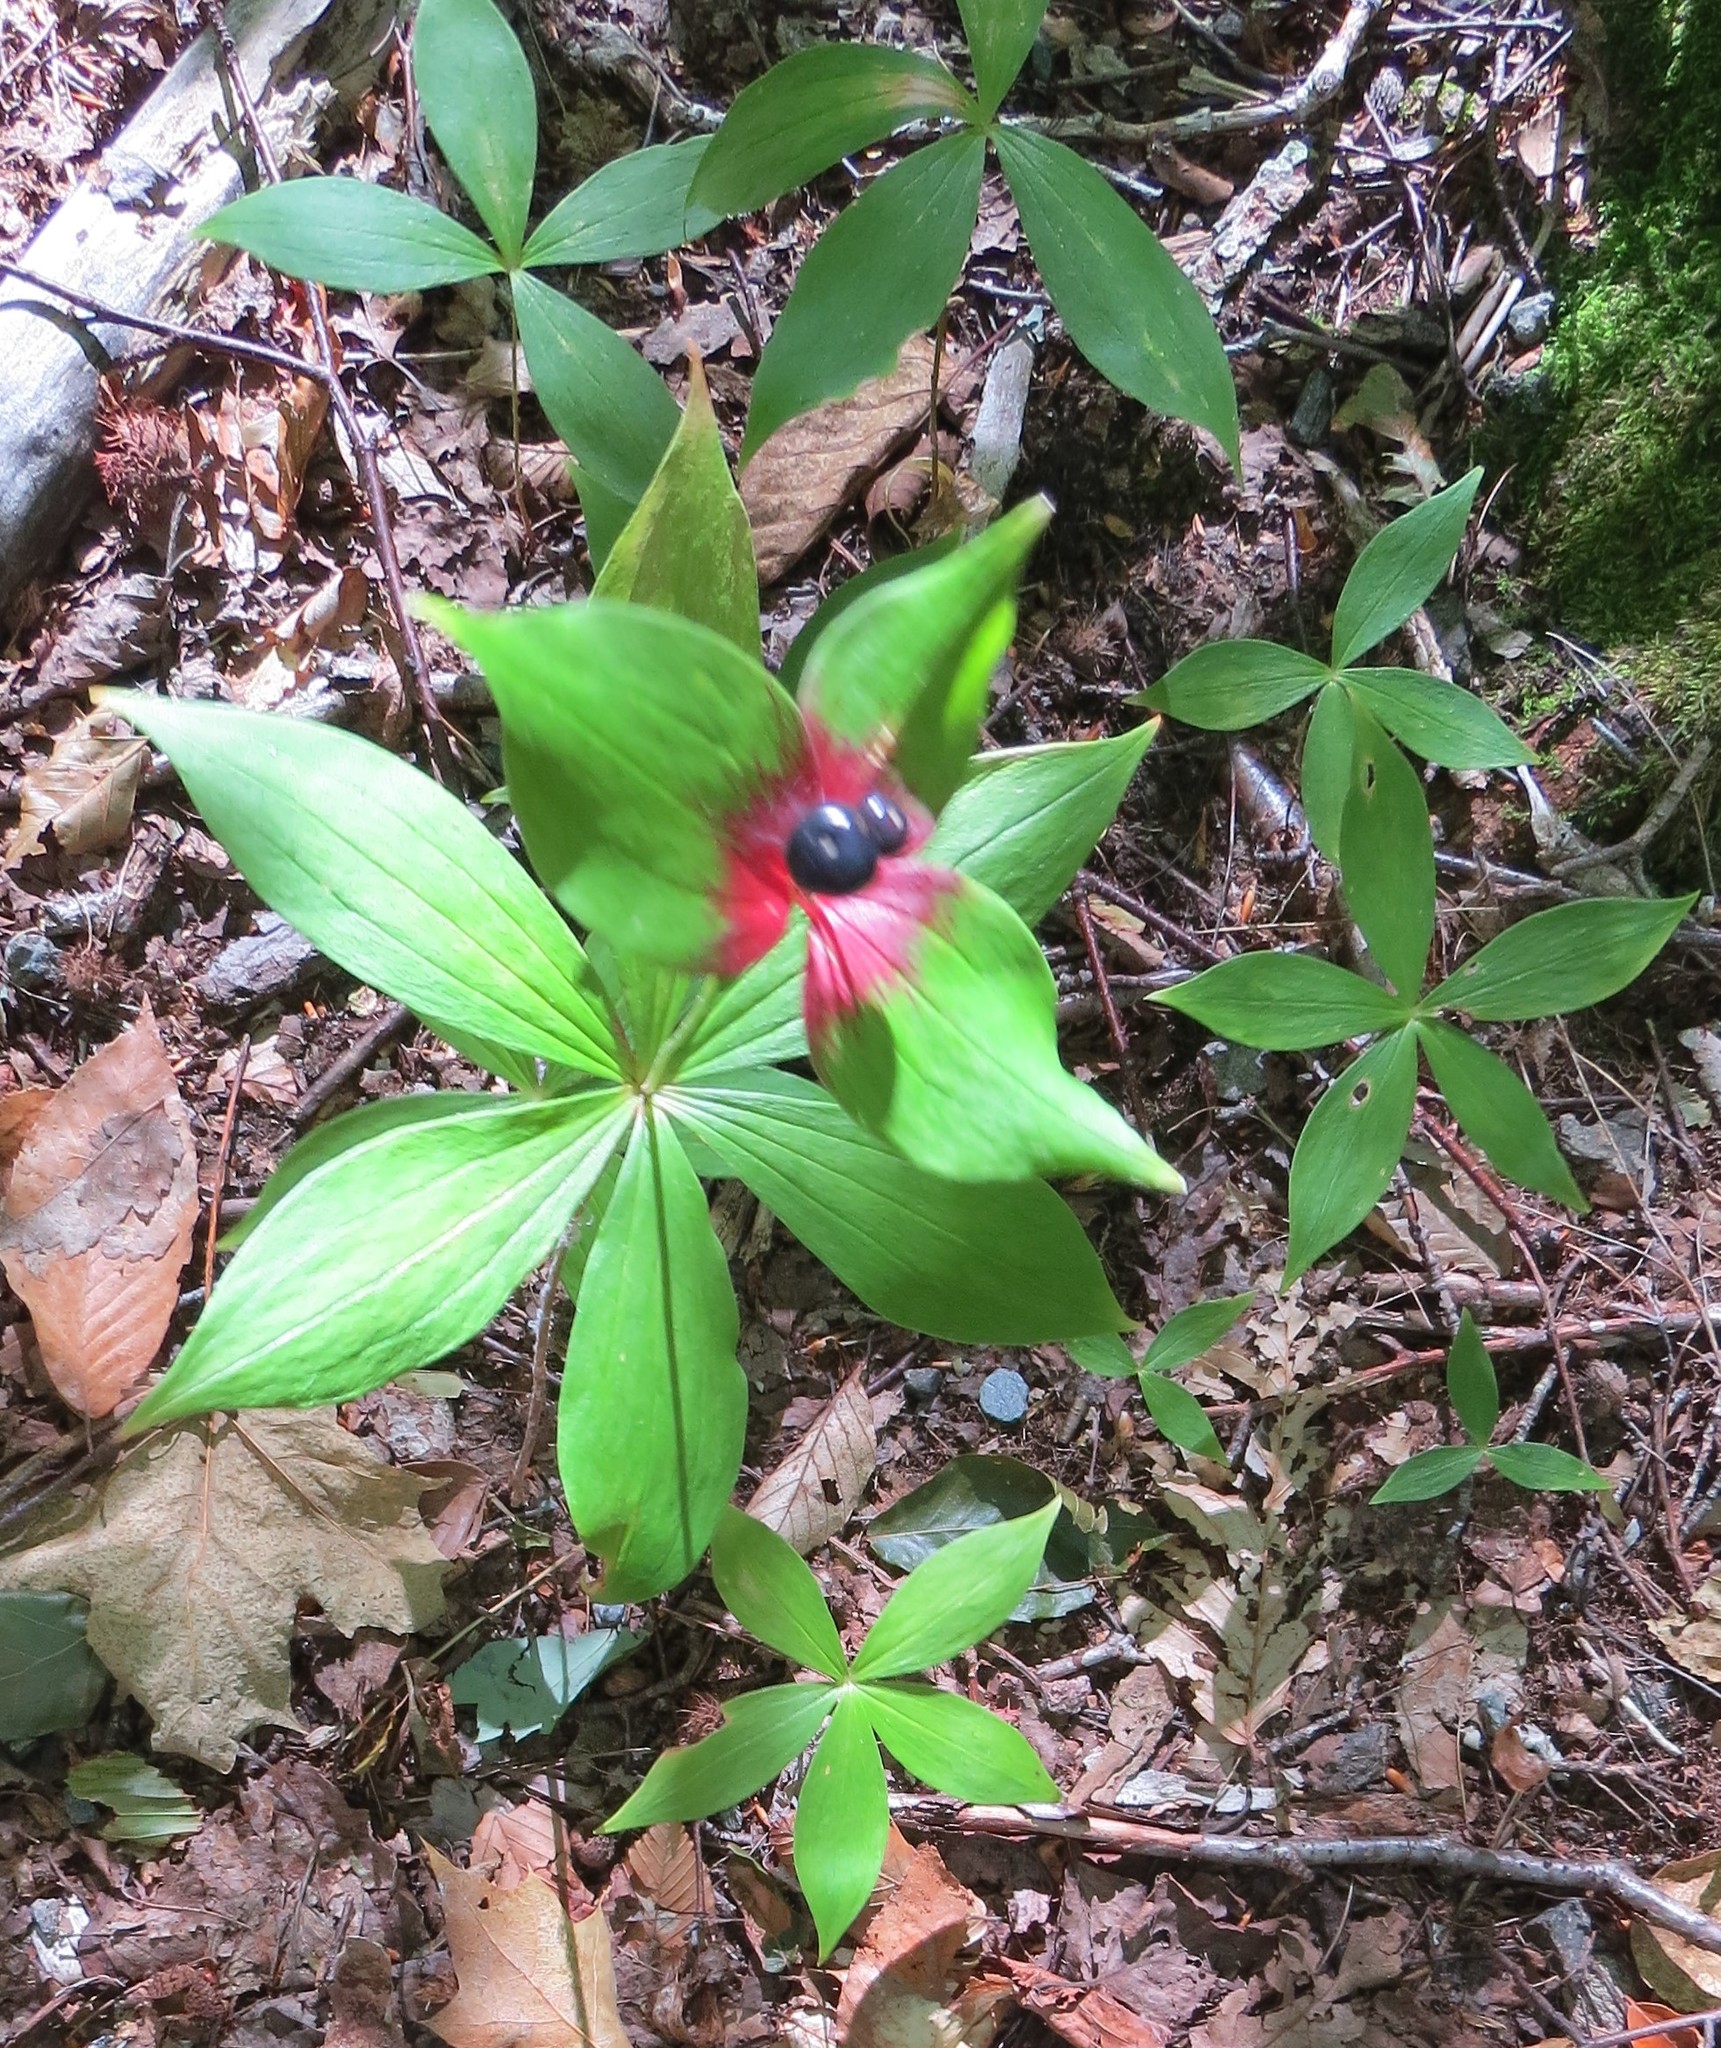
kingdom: Plantae
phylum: Tracheophyta
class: Liliopsida
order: Liliales
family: Liliaceae
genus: Medeola
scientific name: Medeola virginiana
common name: Indian cucumber-root
